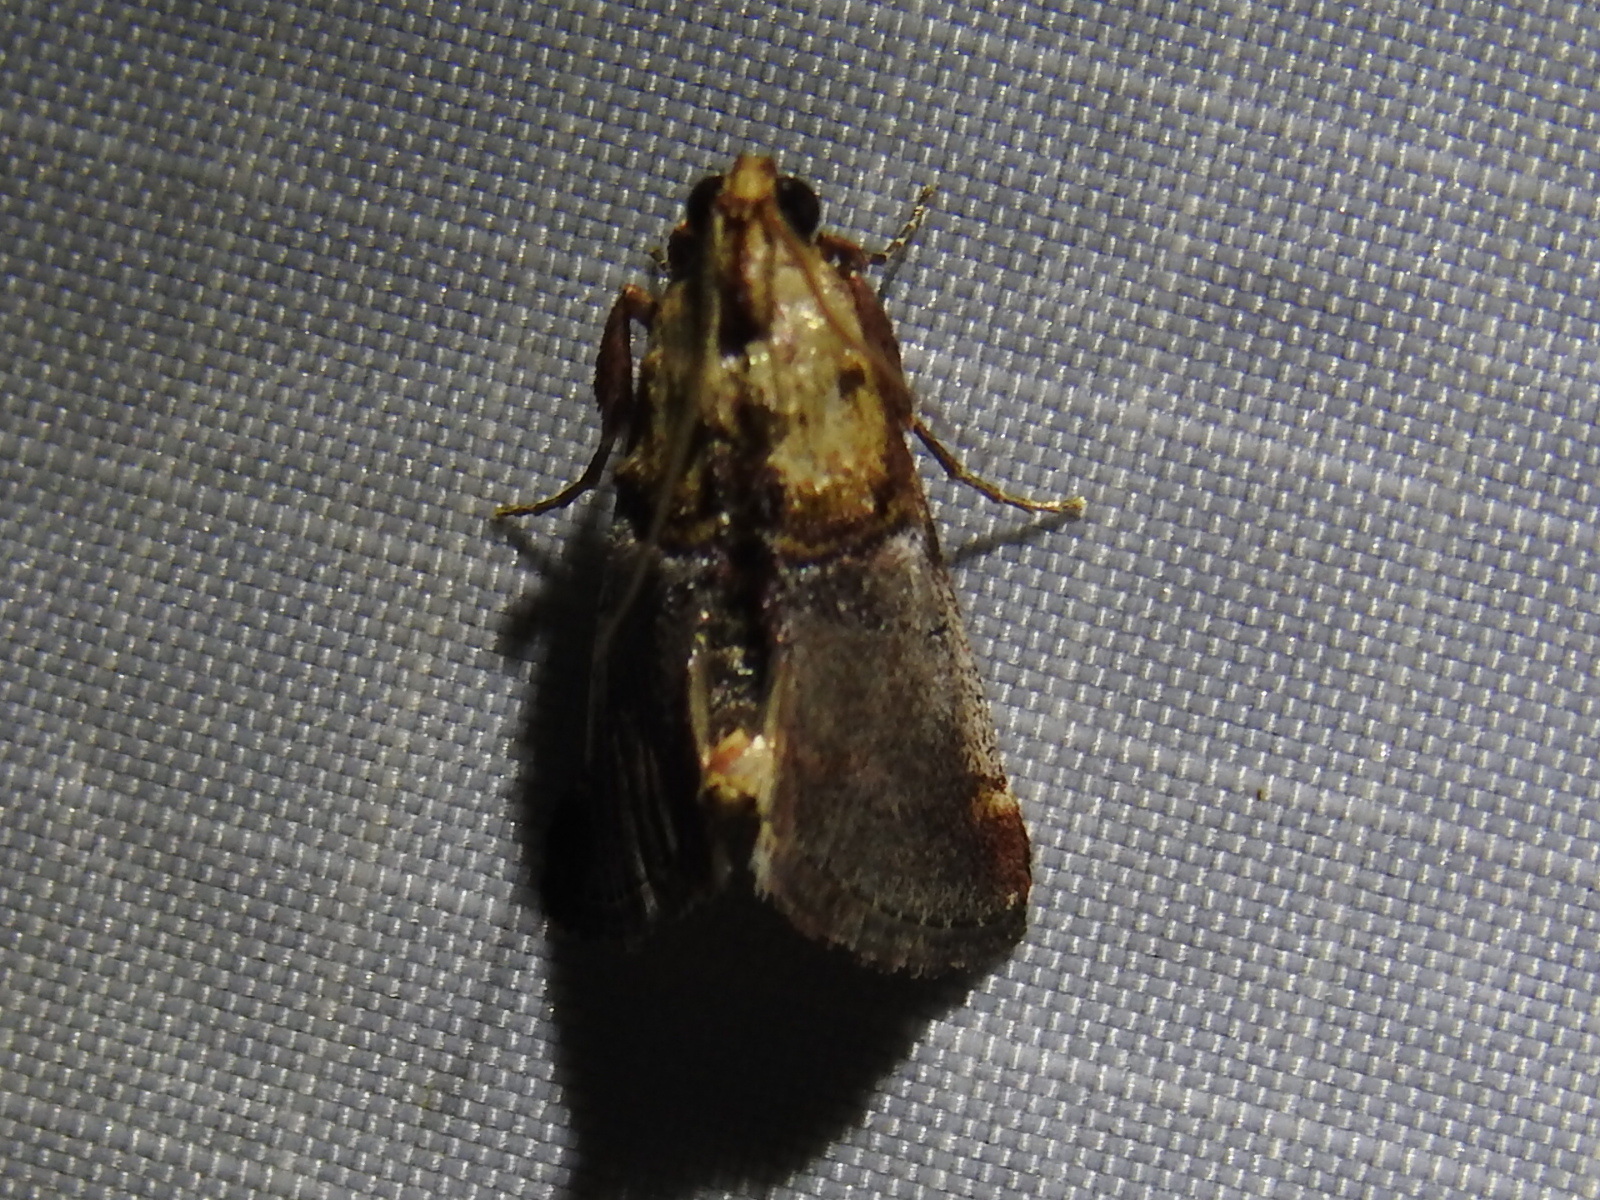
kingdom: Animalia
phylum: Arthropoda
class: Insecta
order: Lepidoptera
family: Pyralidae
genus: Cacozelia
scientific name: Cacozelia basiochrealis
